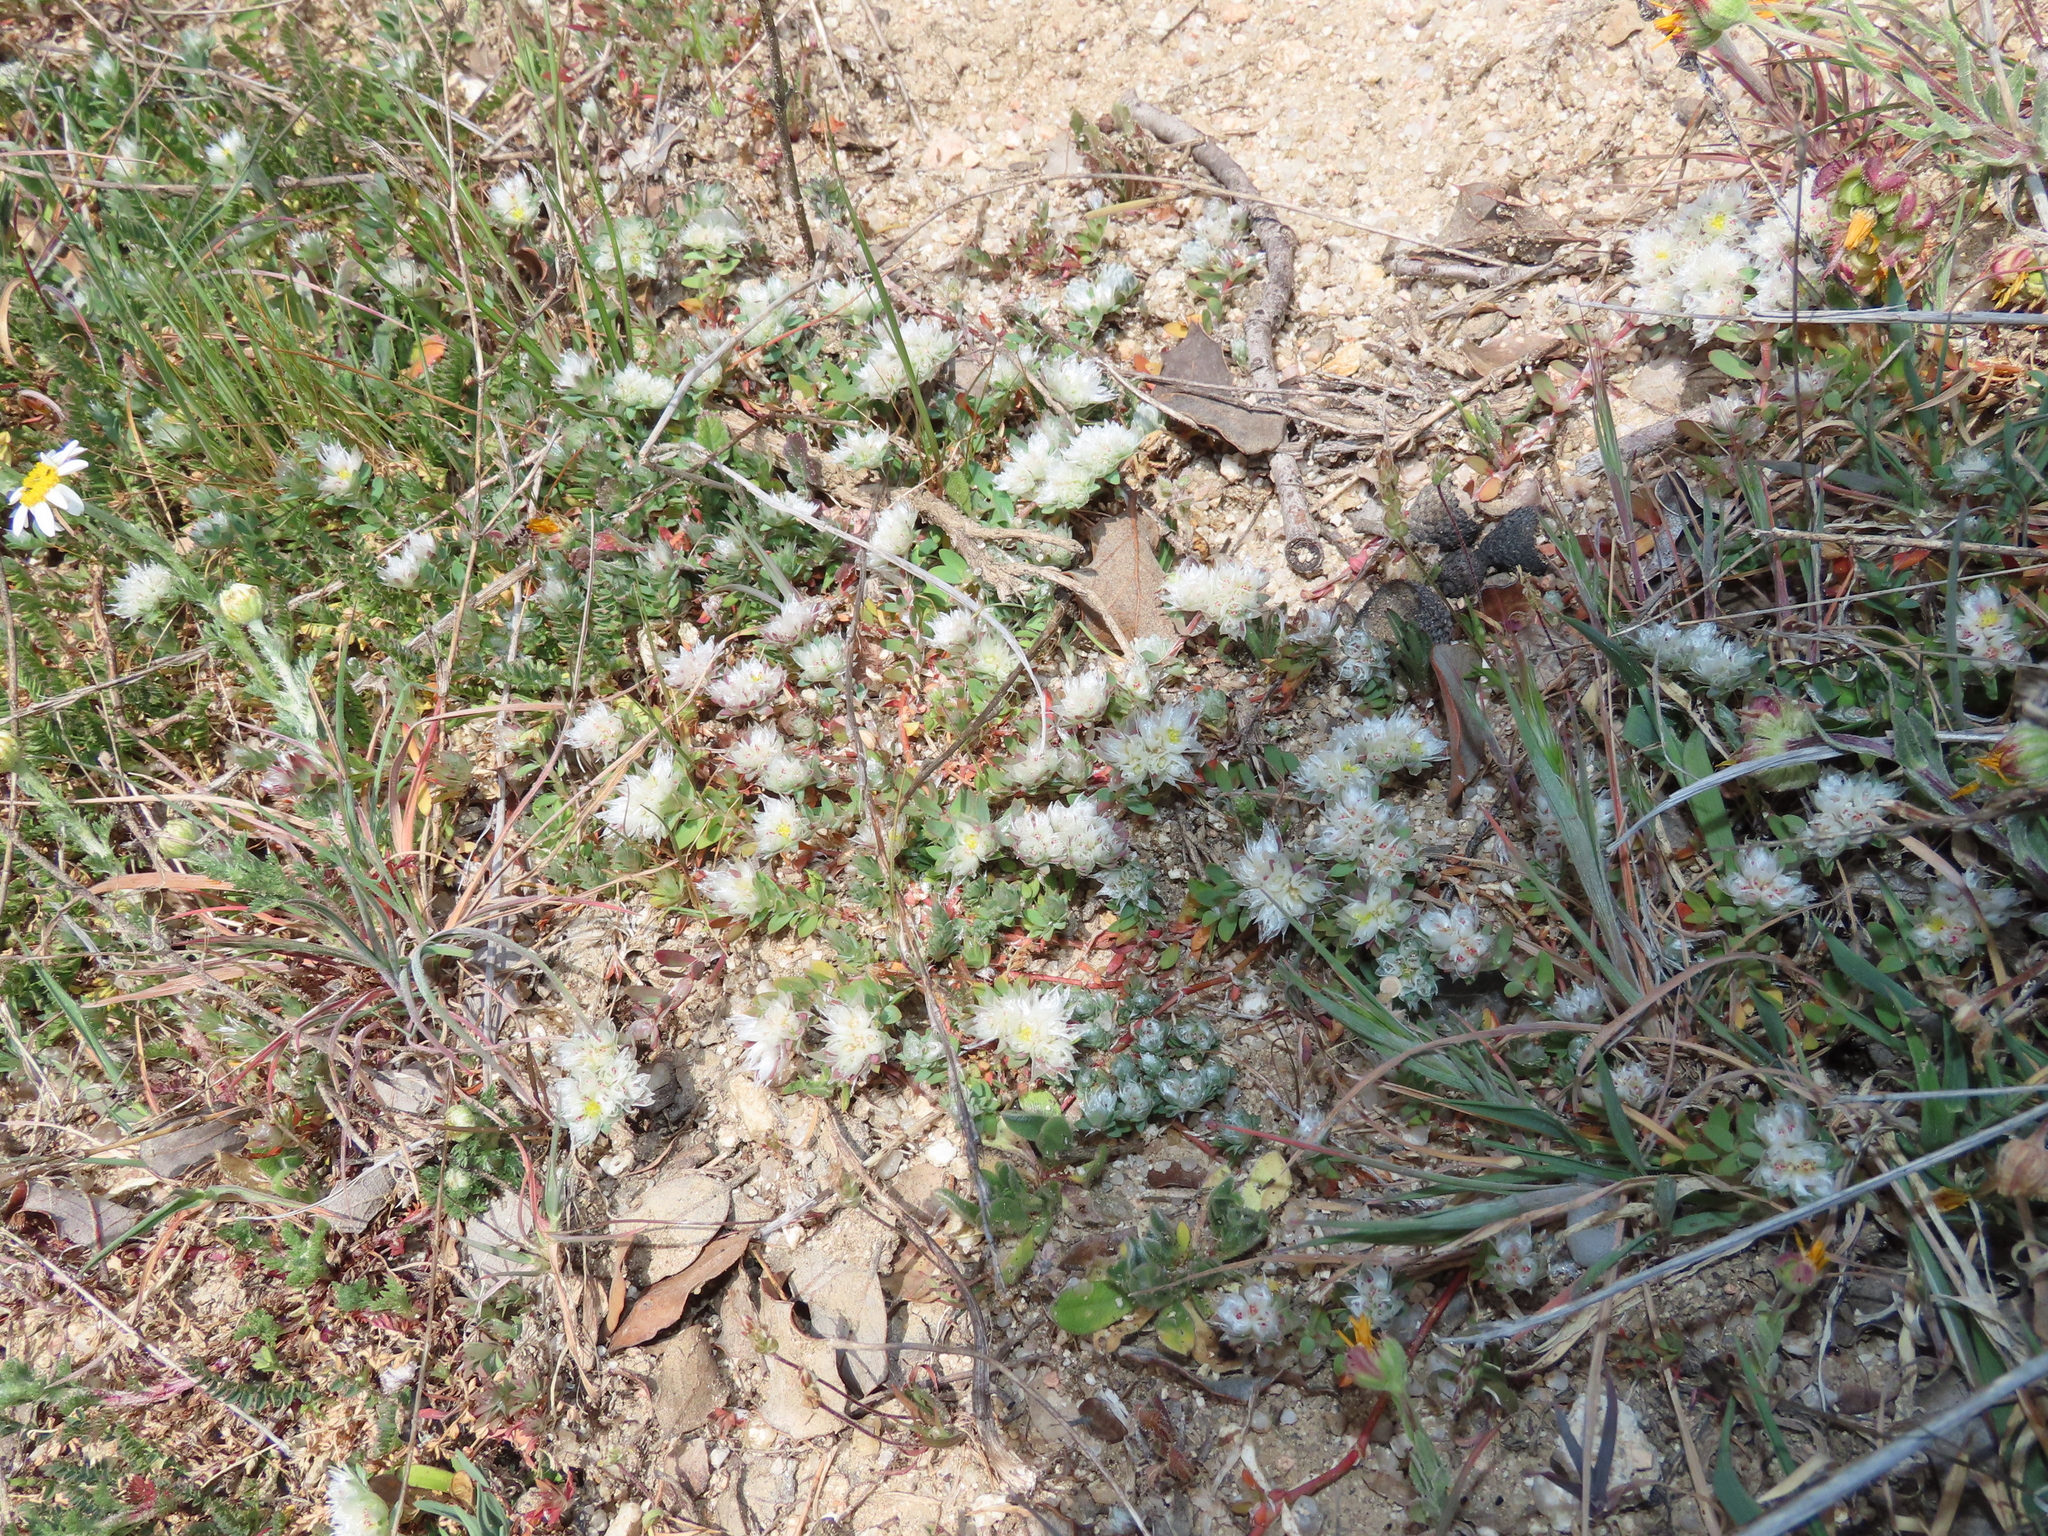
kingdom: Plantae
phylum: Tracheophyta
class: Magnoliopsida
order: Caryophyllales
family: Caryophyllaceae
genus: Paronychia
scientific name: Paronychia argentea
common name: Silver nailroot
